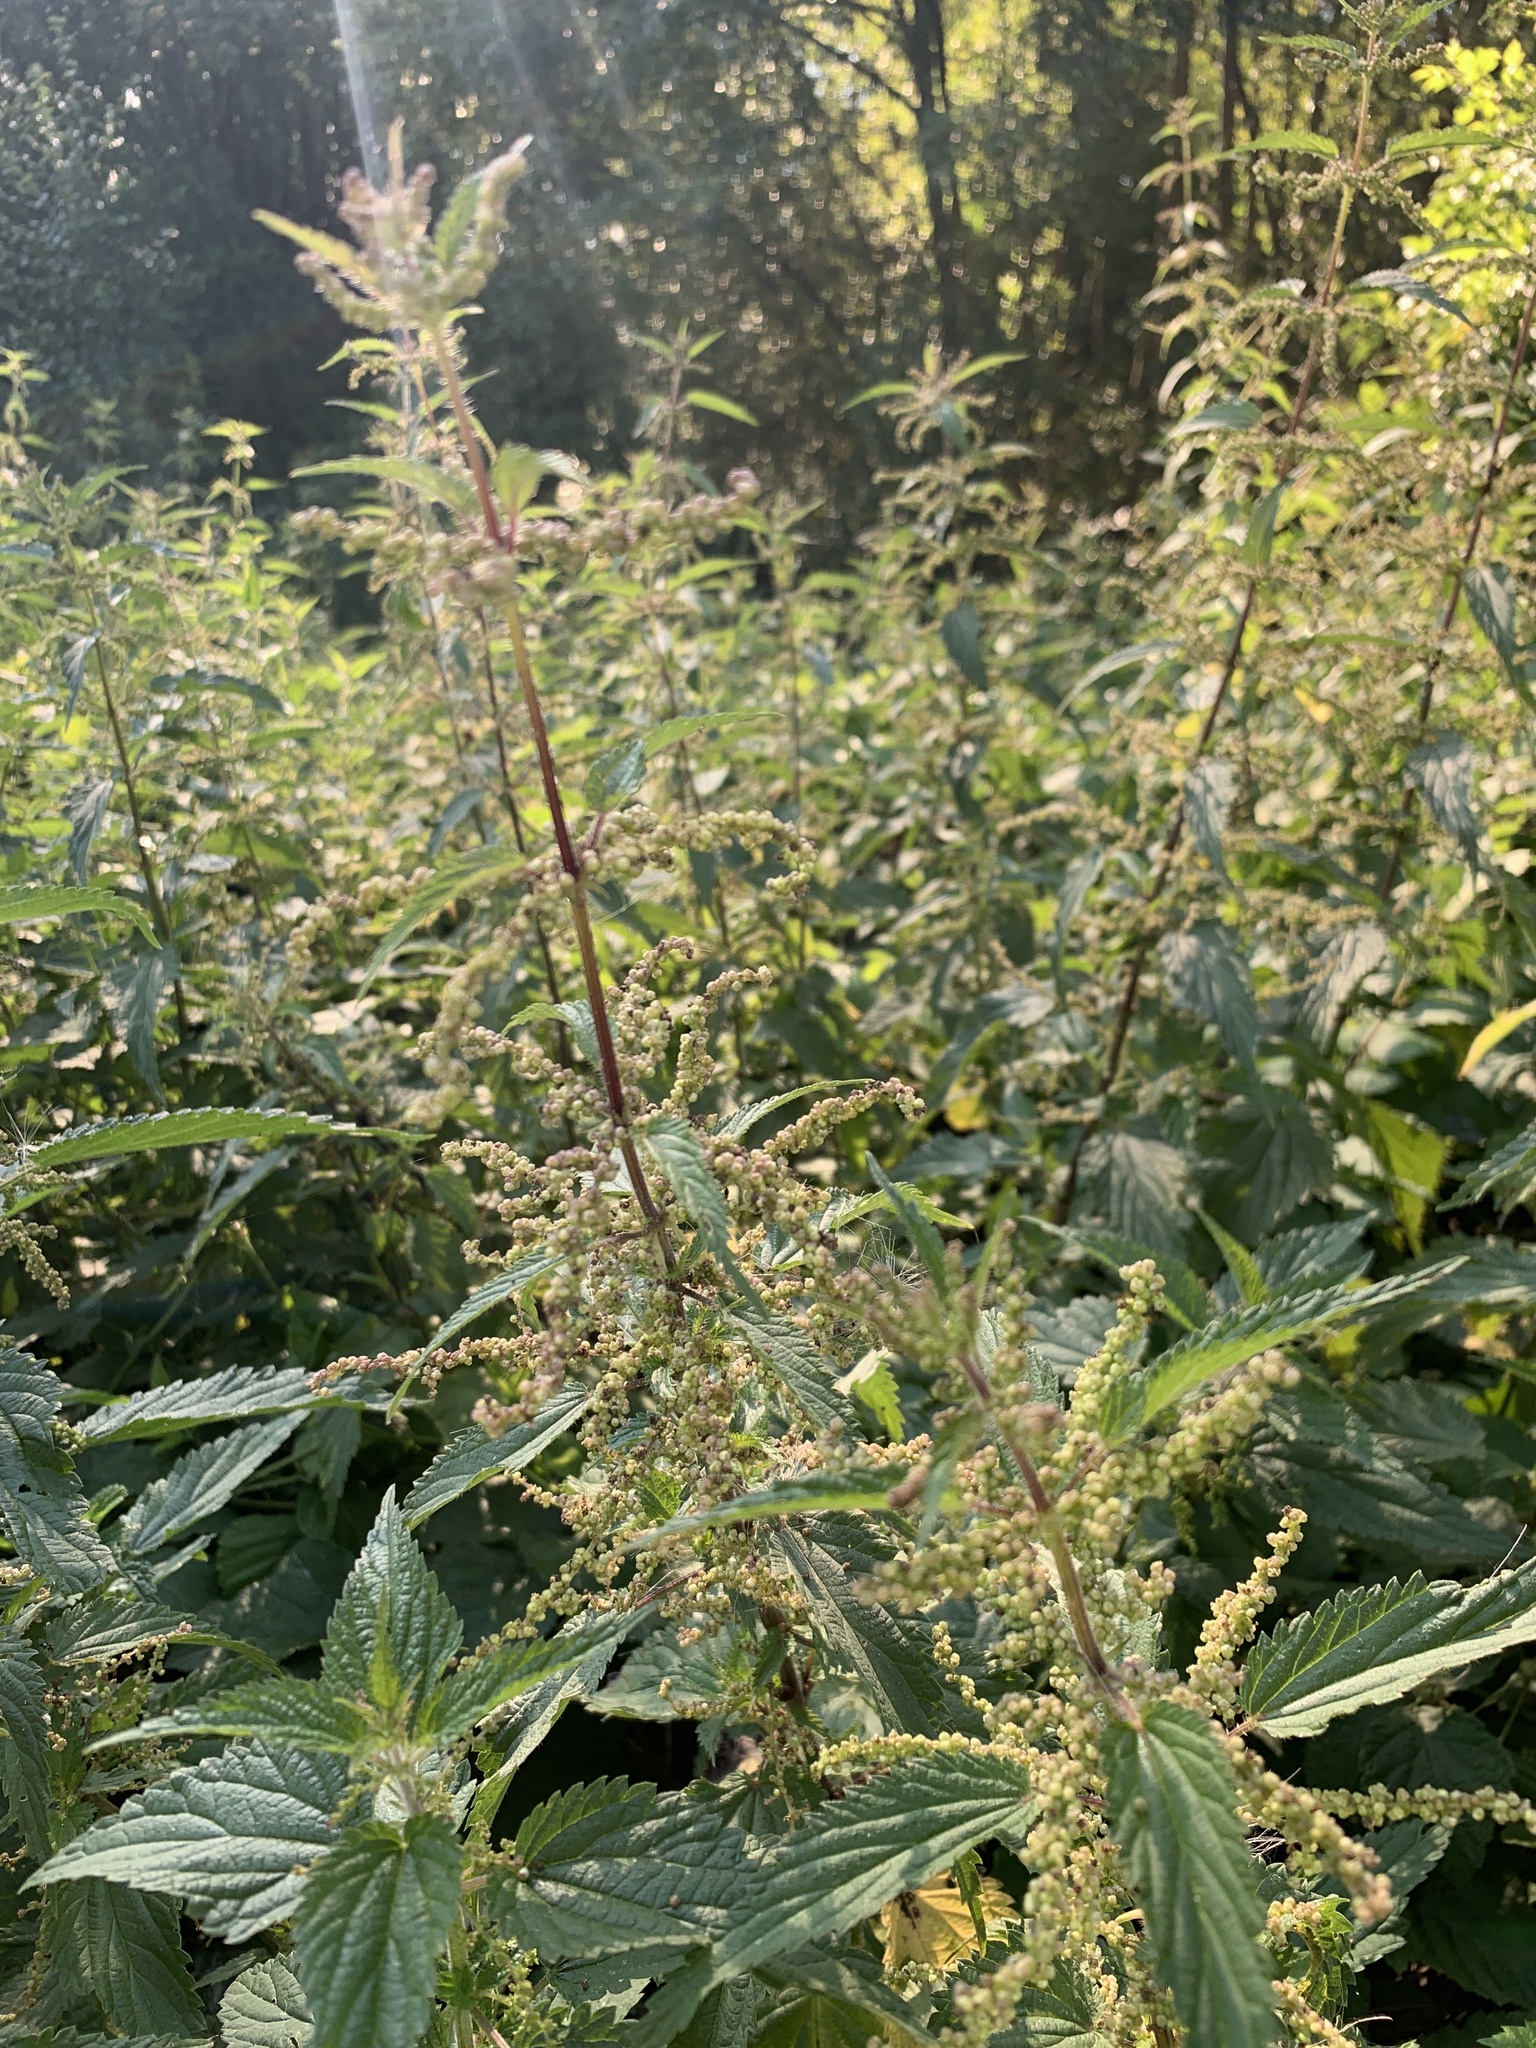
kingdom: Plantae
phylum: Tracheophyta
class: Magnoliopsida
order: Rosales
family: Urticaceae
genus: Urtica
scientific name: Urtica dioica
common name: Common nettle
